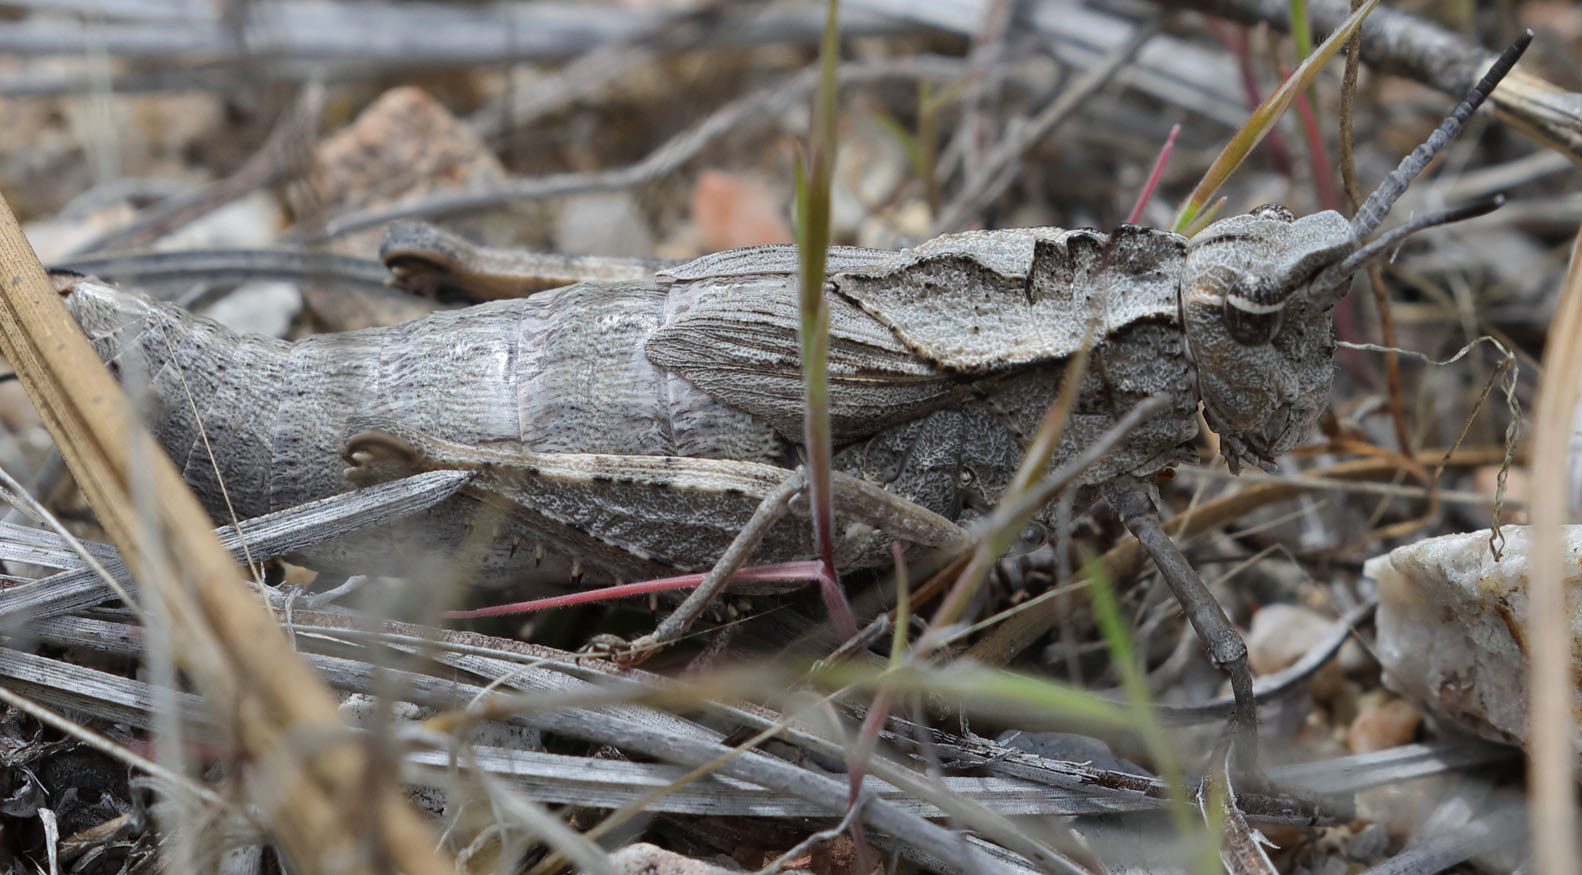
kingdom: Animalia
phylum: Arthropoda
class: Insecta
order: Orthoptera
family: Romaleidae
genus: Dracotettix
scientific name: Dracotettix monstrosus
